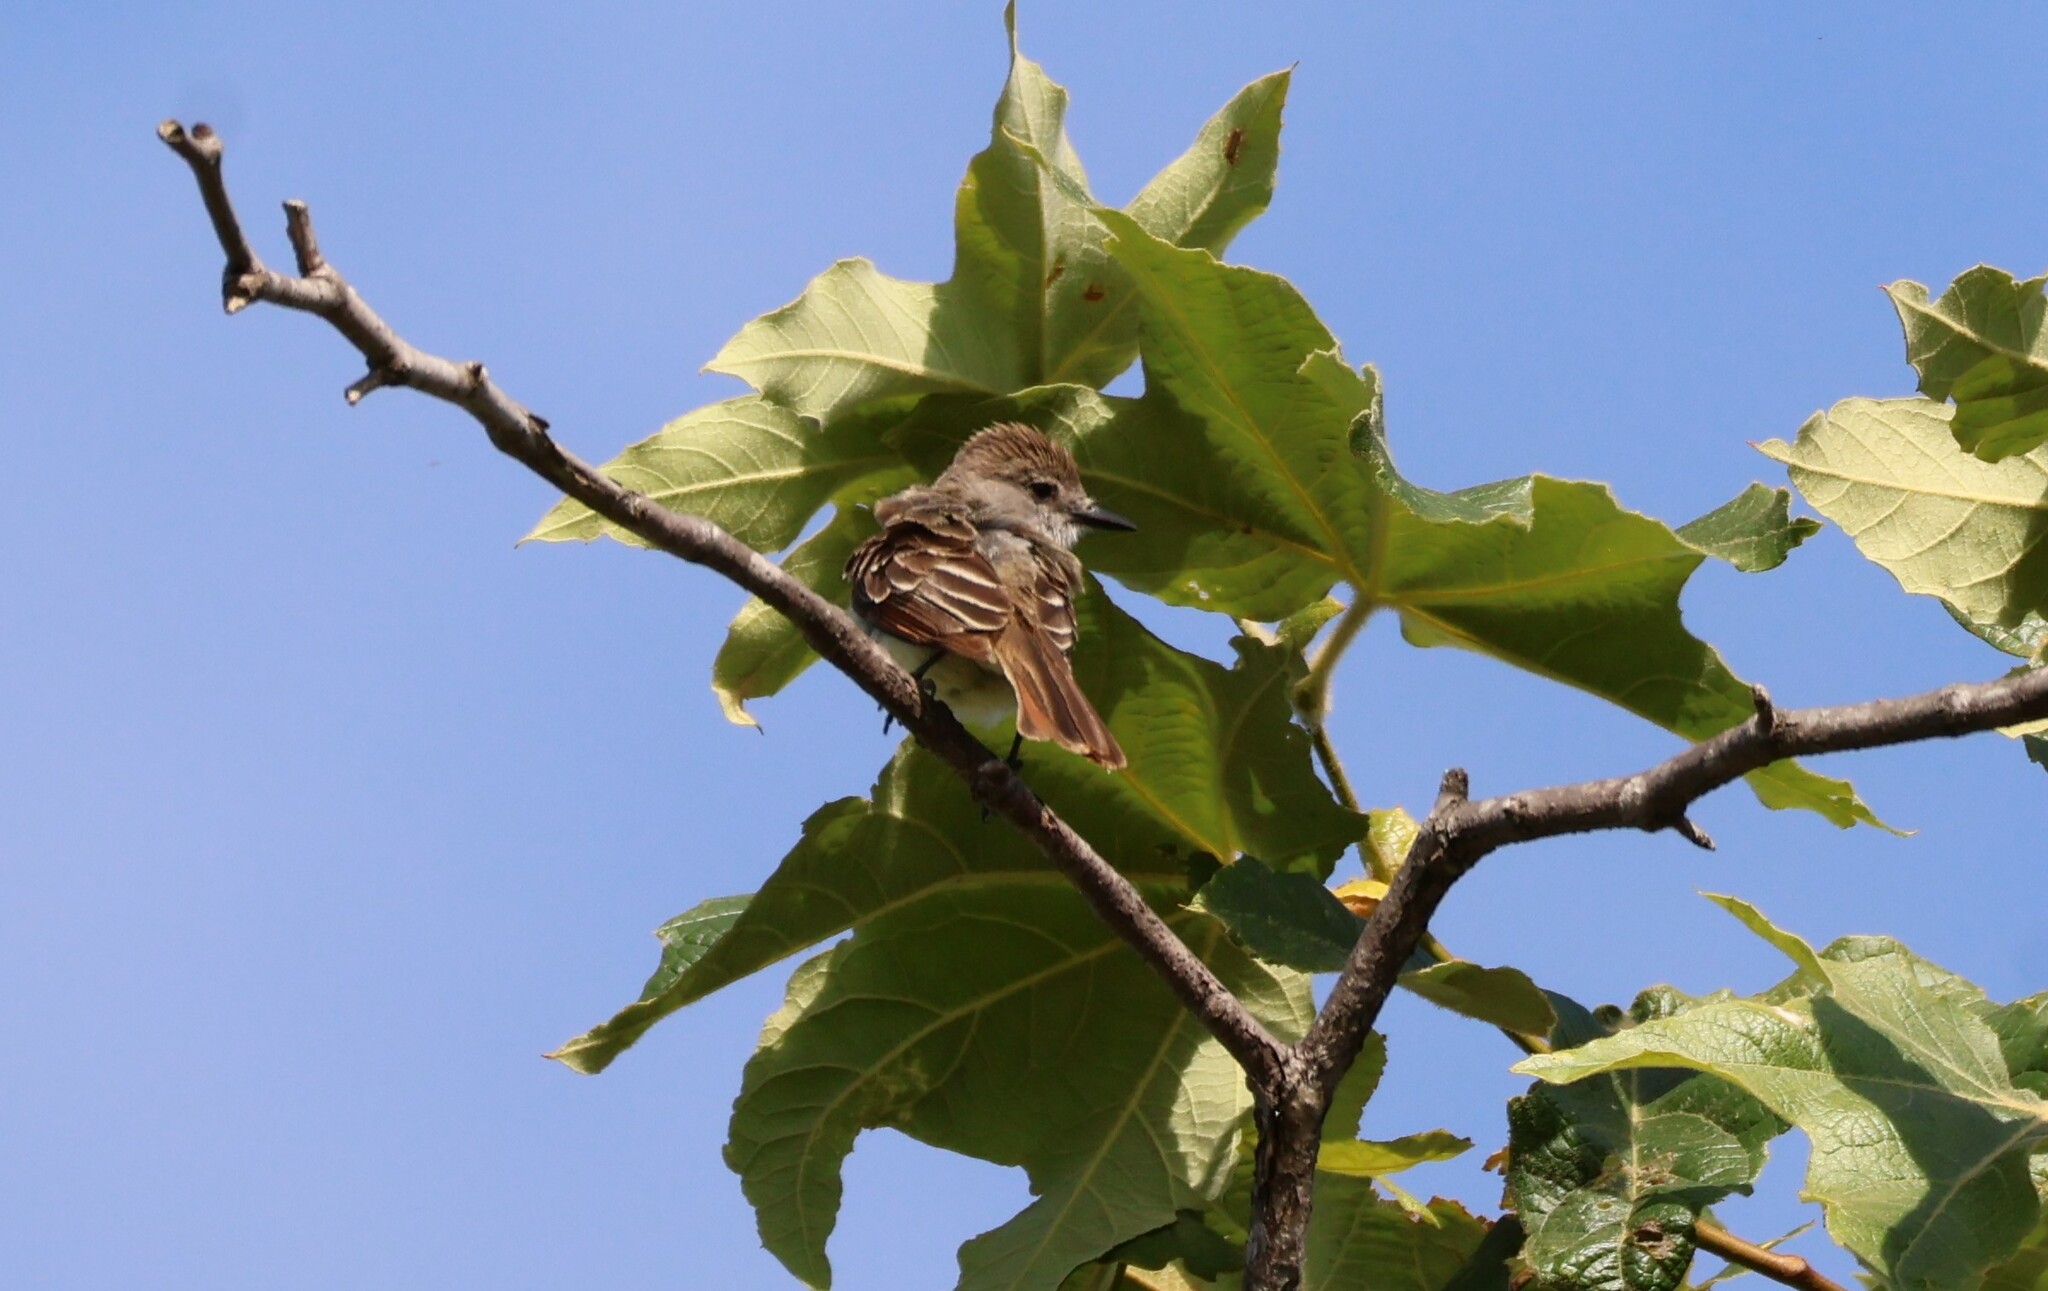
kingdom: Animalia
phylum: Chordata
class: Aves
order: Passeriformes
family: Tyrannidae
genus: Myiarchus
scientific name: Myiarchus cinerascens
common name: Ash-throated flycatcher
